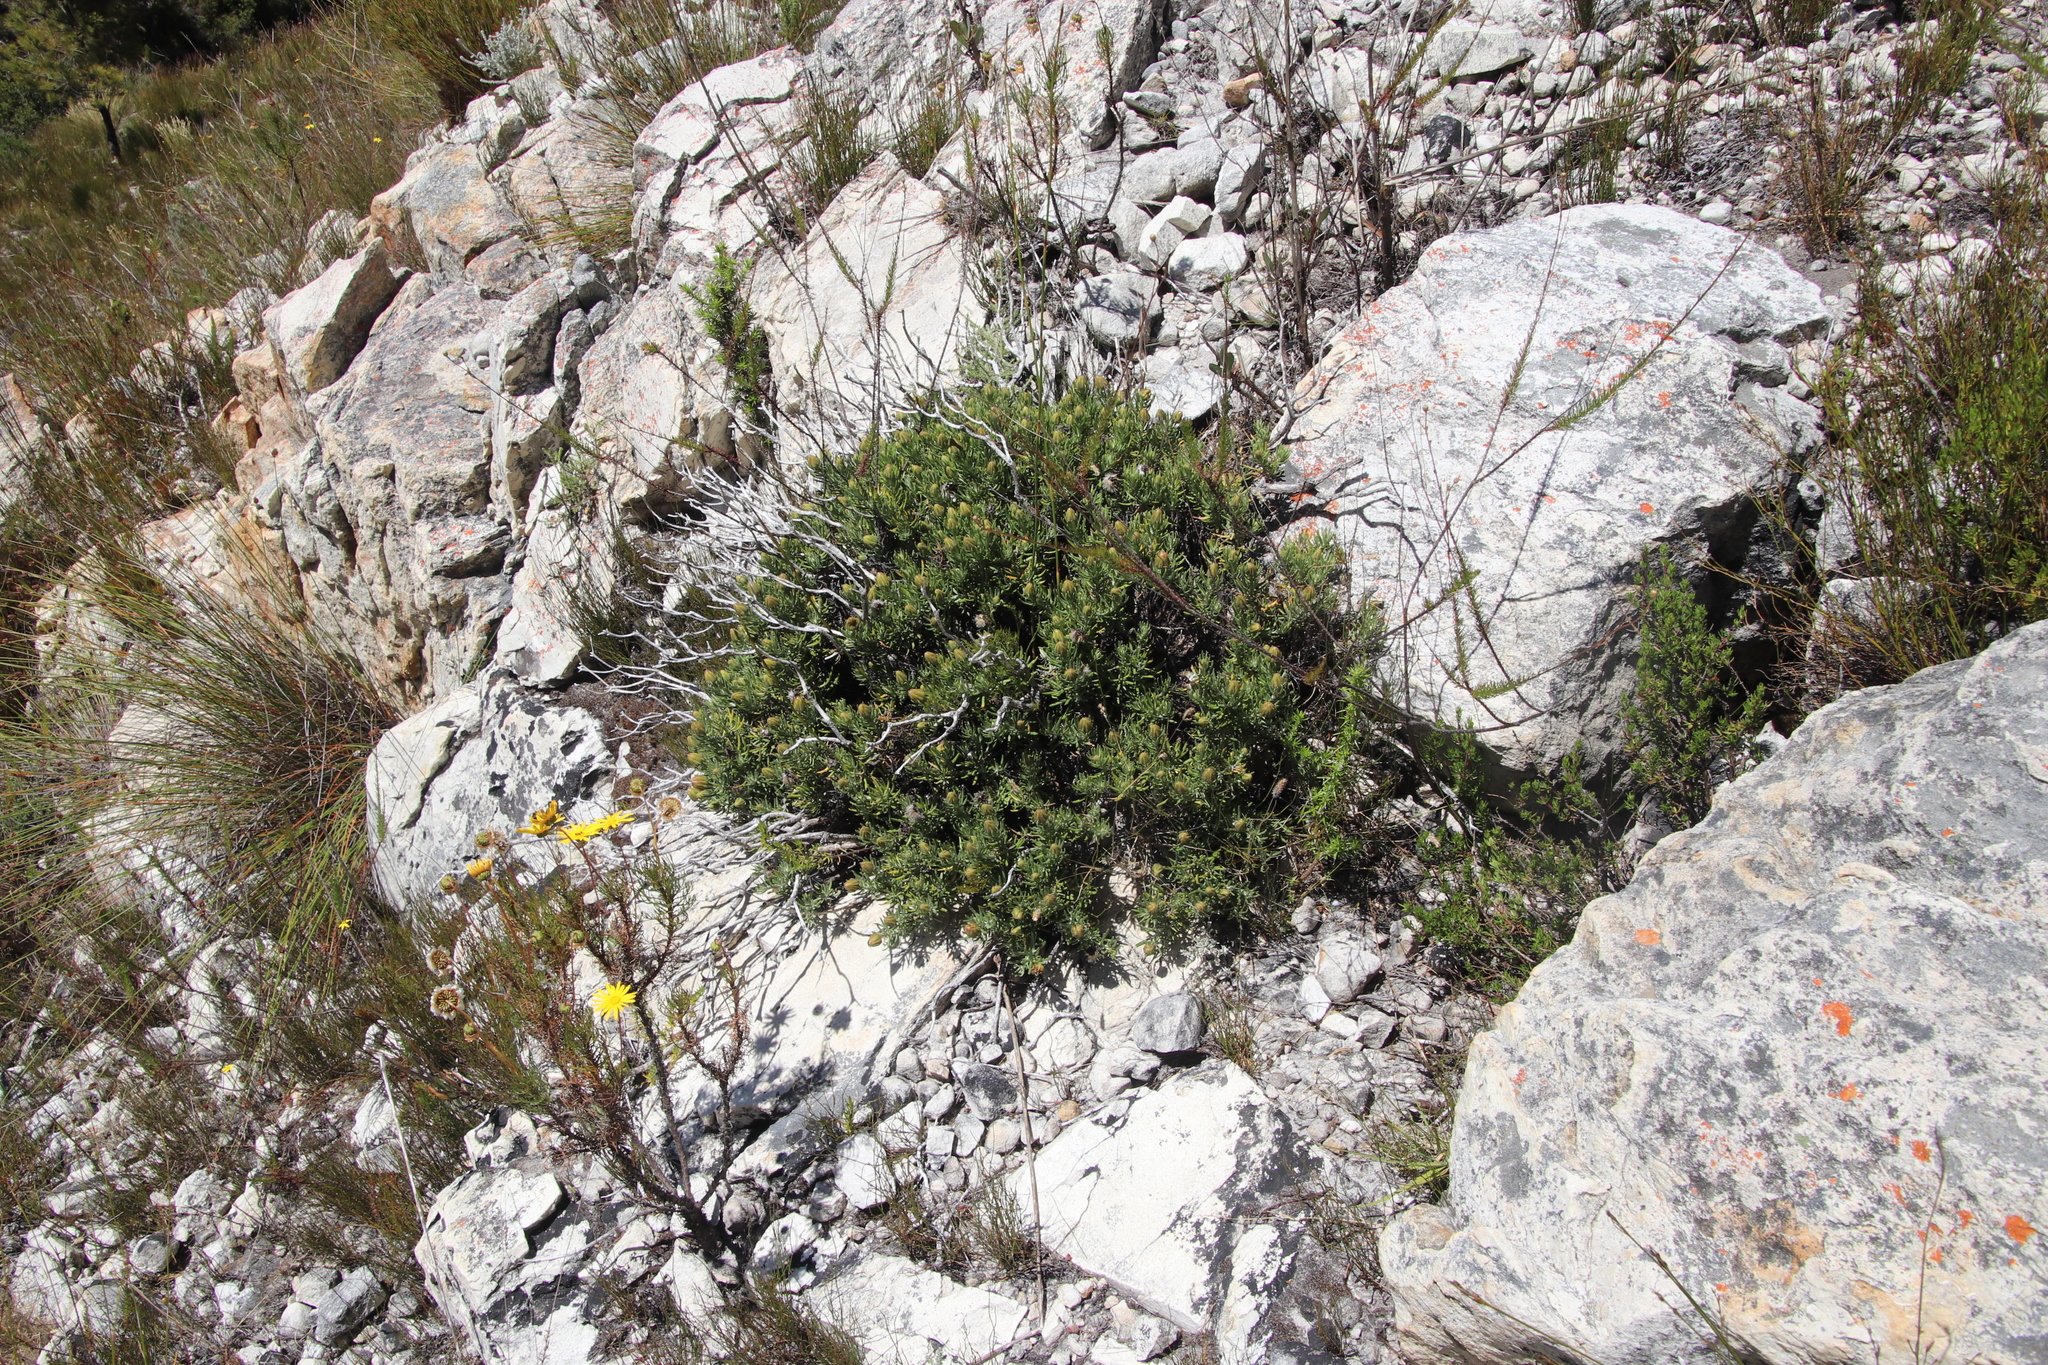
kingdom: Plantae
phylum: Tracheophyta
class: Magnoliopsida
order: Asterales
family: Asteraceae
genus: Heterolepis
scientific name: Heterolepis aliena
